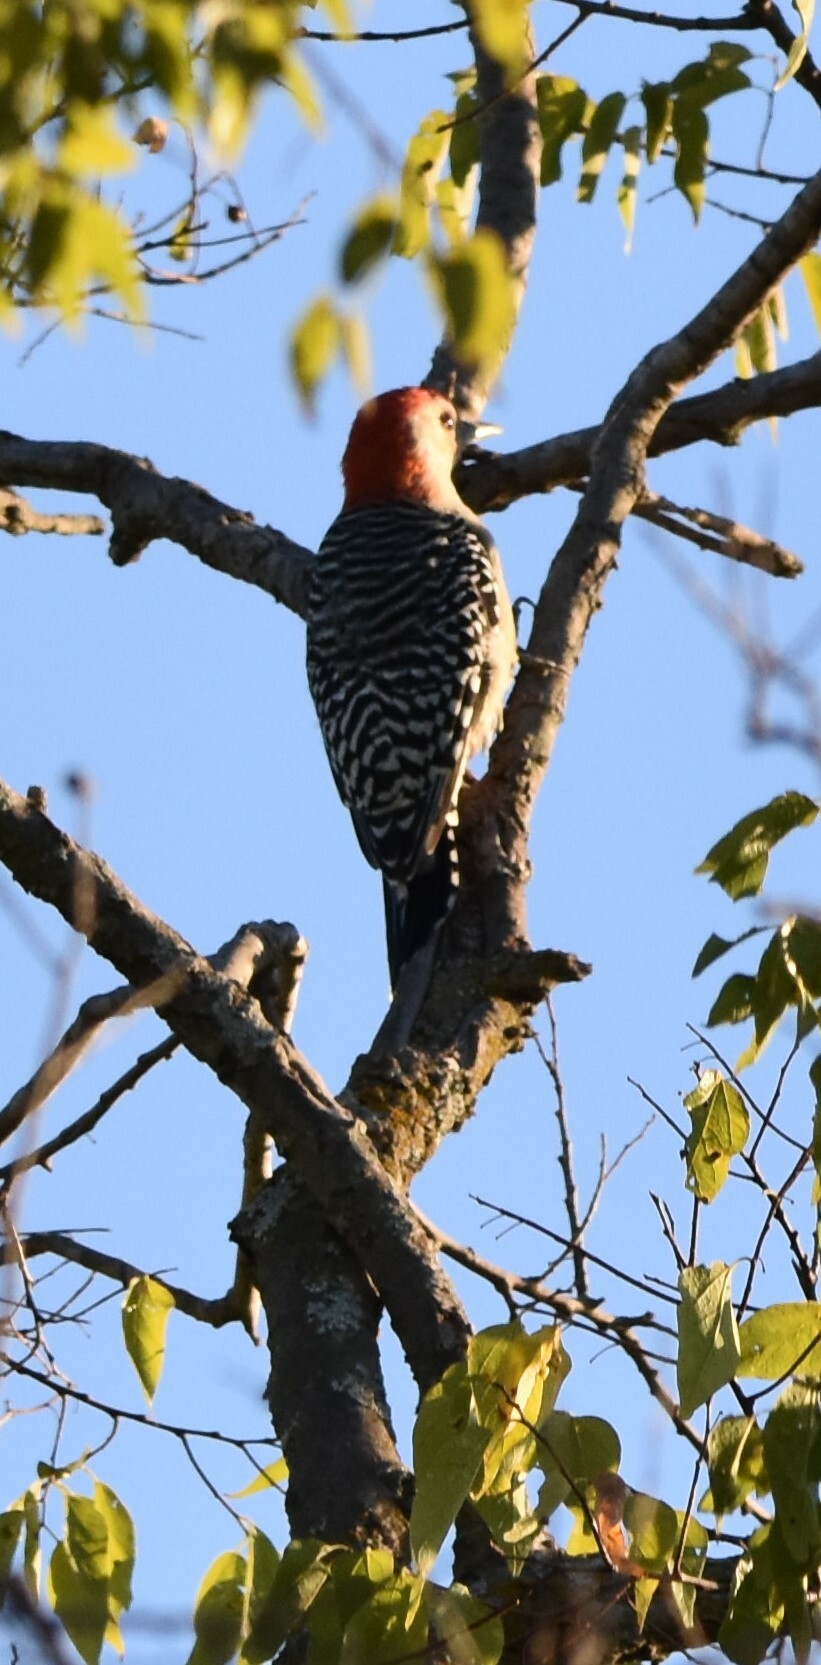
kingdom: Animalia
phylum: Chordata
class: Aves
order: Piciformes
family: Picidae
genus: Melanerpes
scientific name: Melanerpes carolinus
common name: Red-bellied woodpecker
